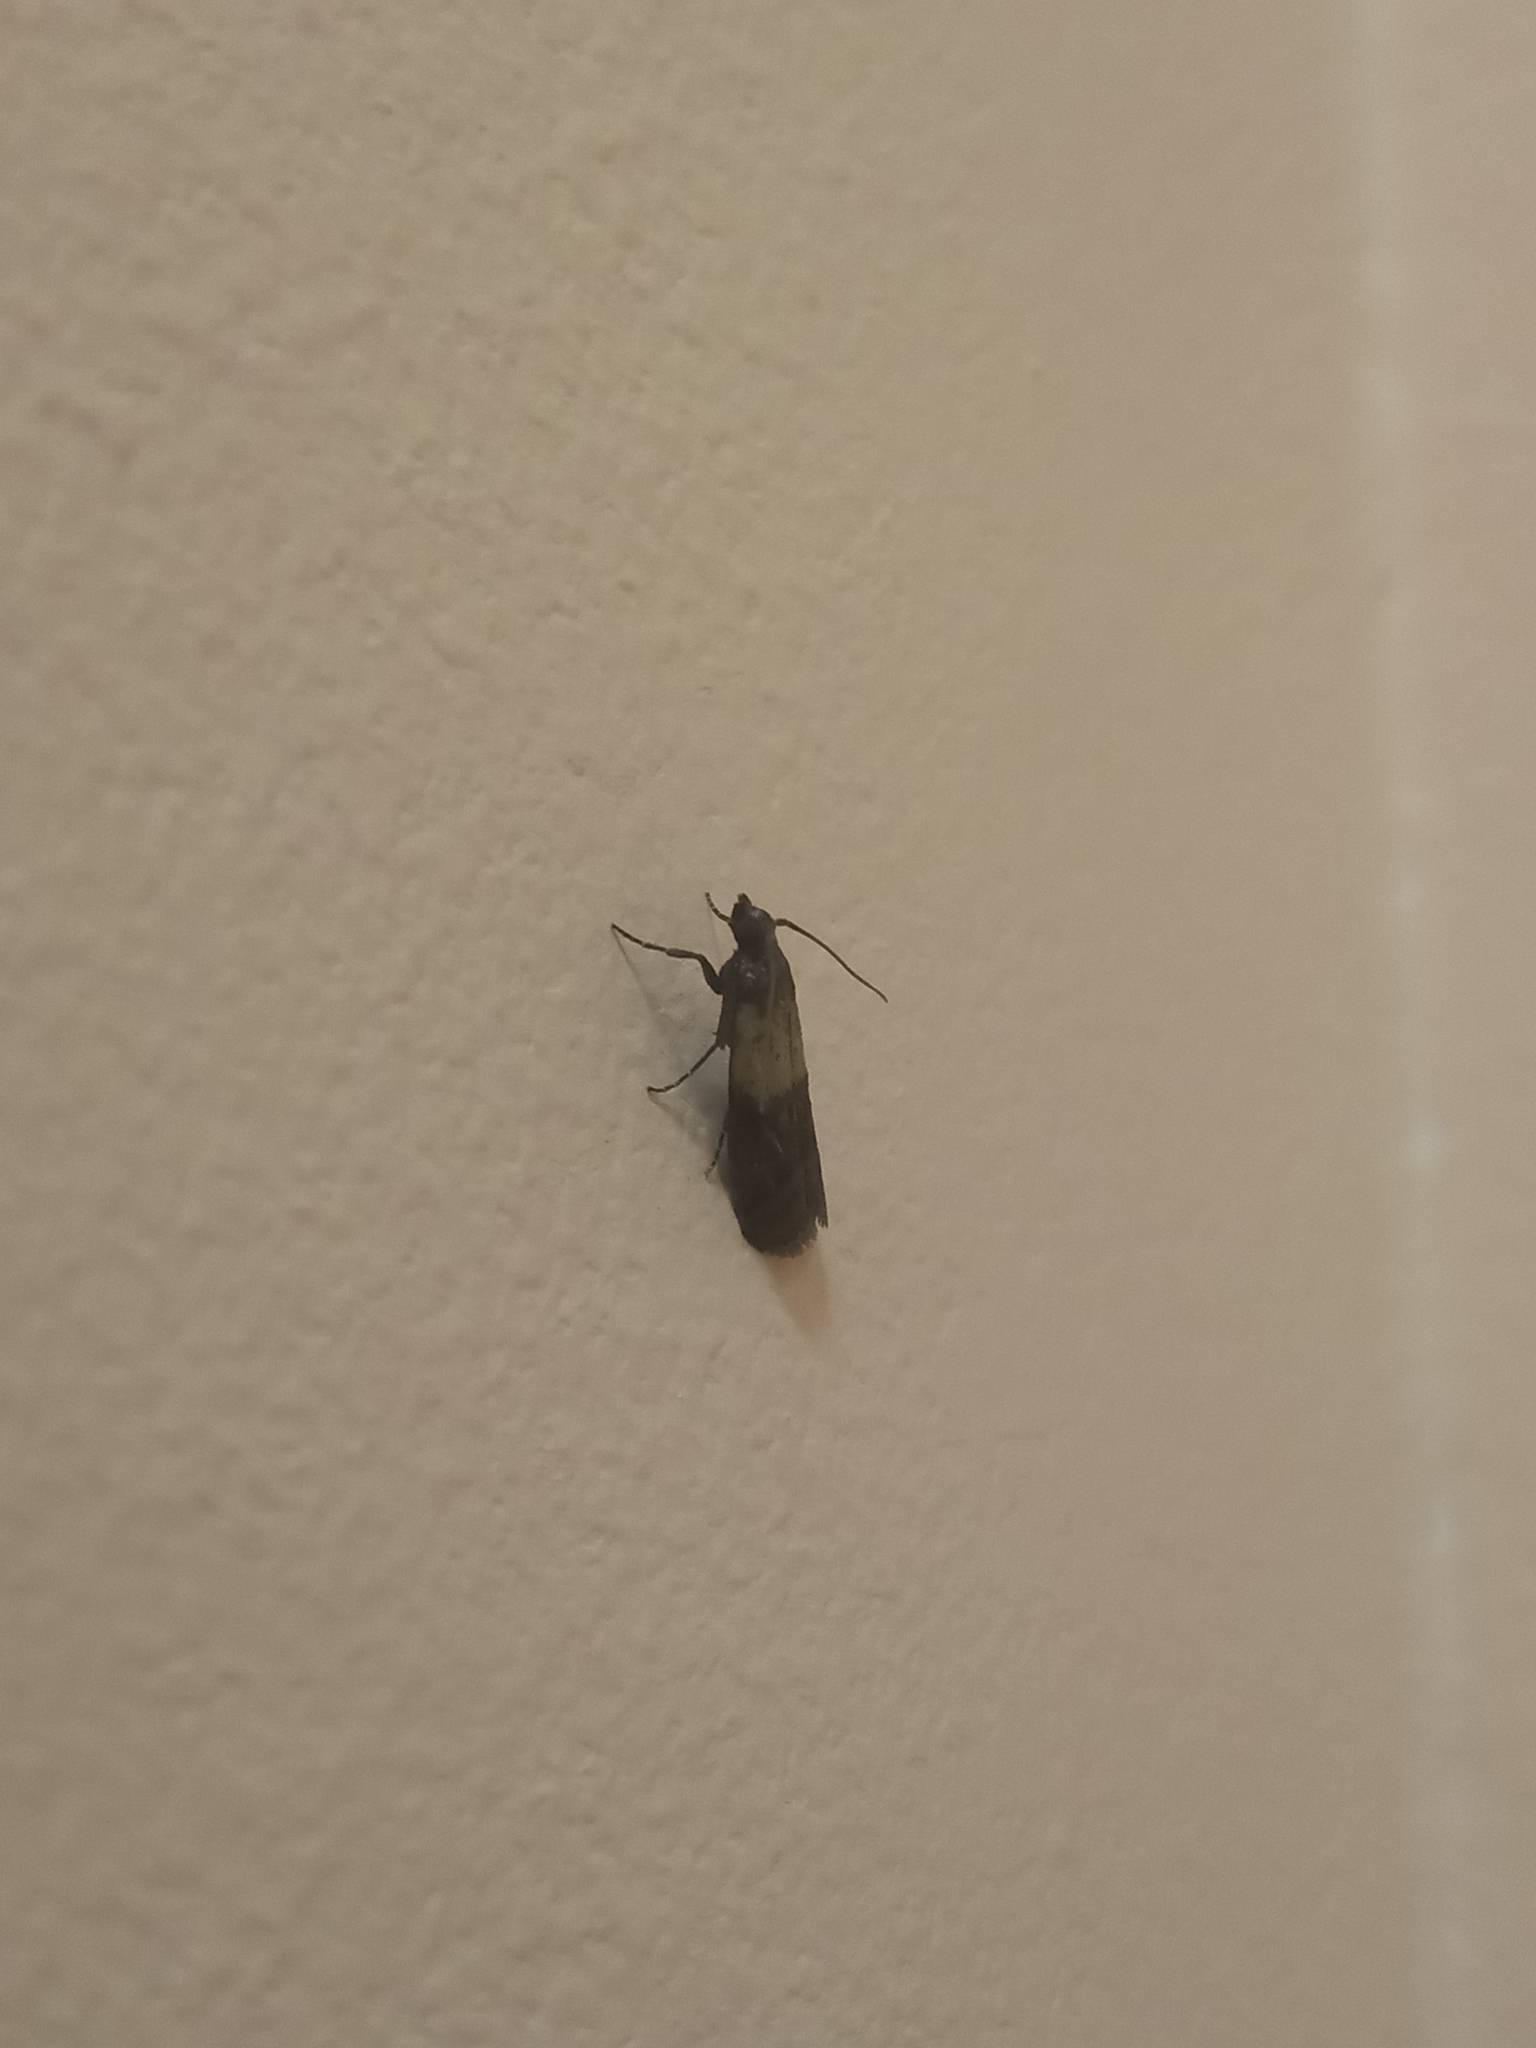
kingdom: Animalia
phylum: Arthropoda
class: Insecta
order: Lepidoptera
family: Pyralidae
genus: Plodia
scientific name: Plodia interpunctella
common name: Indian meal moth
